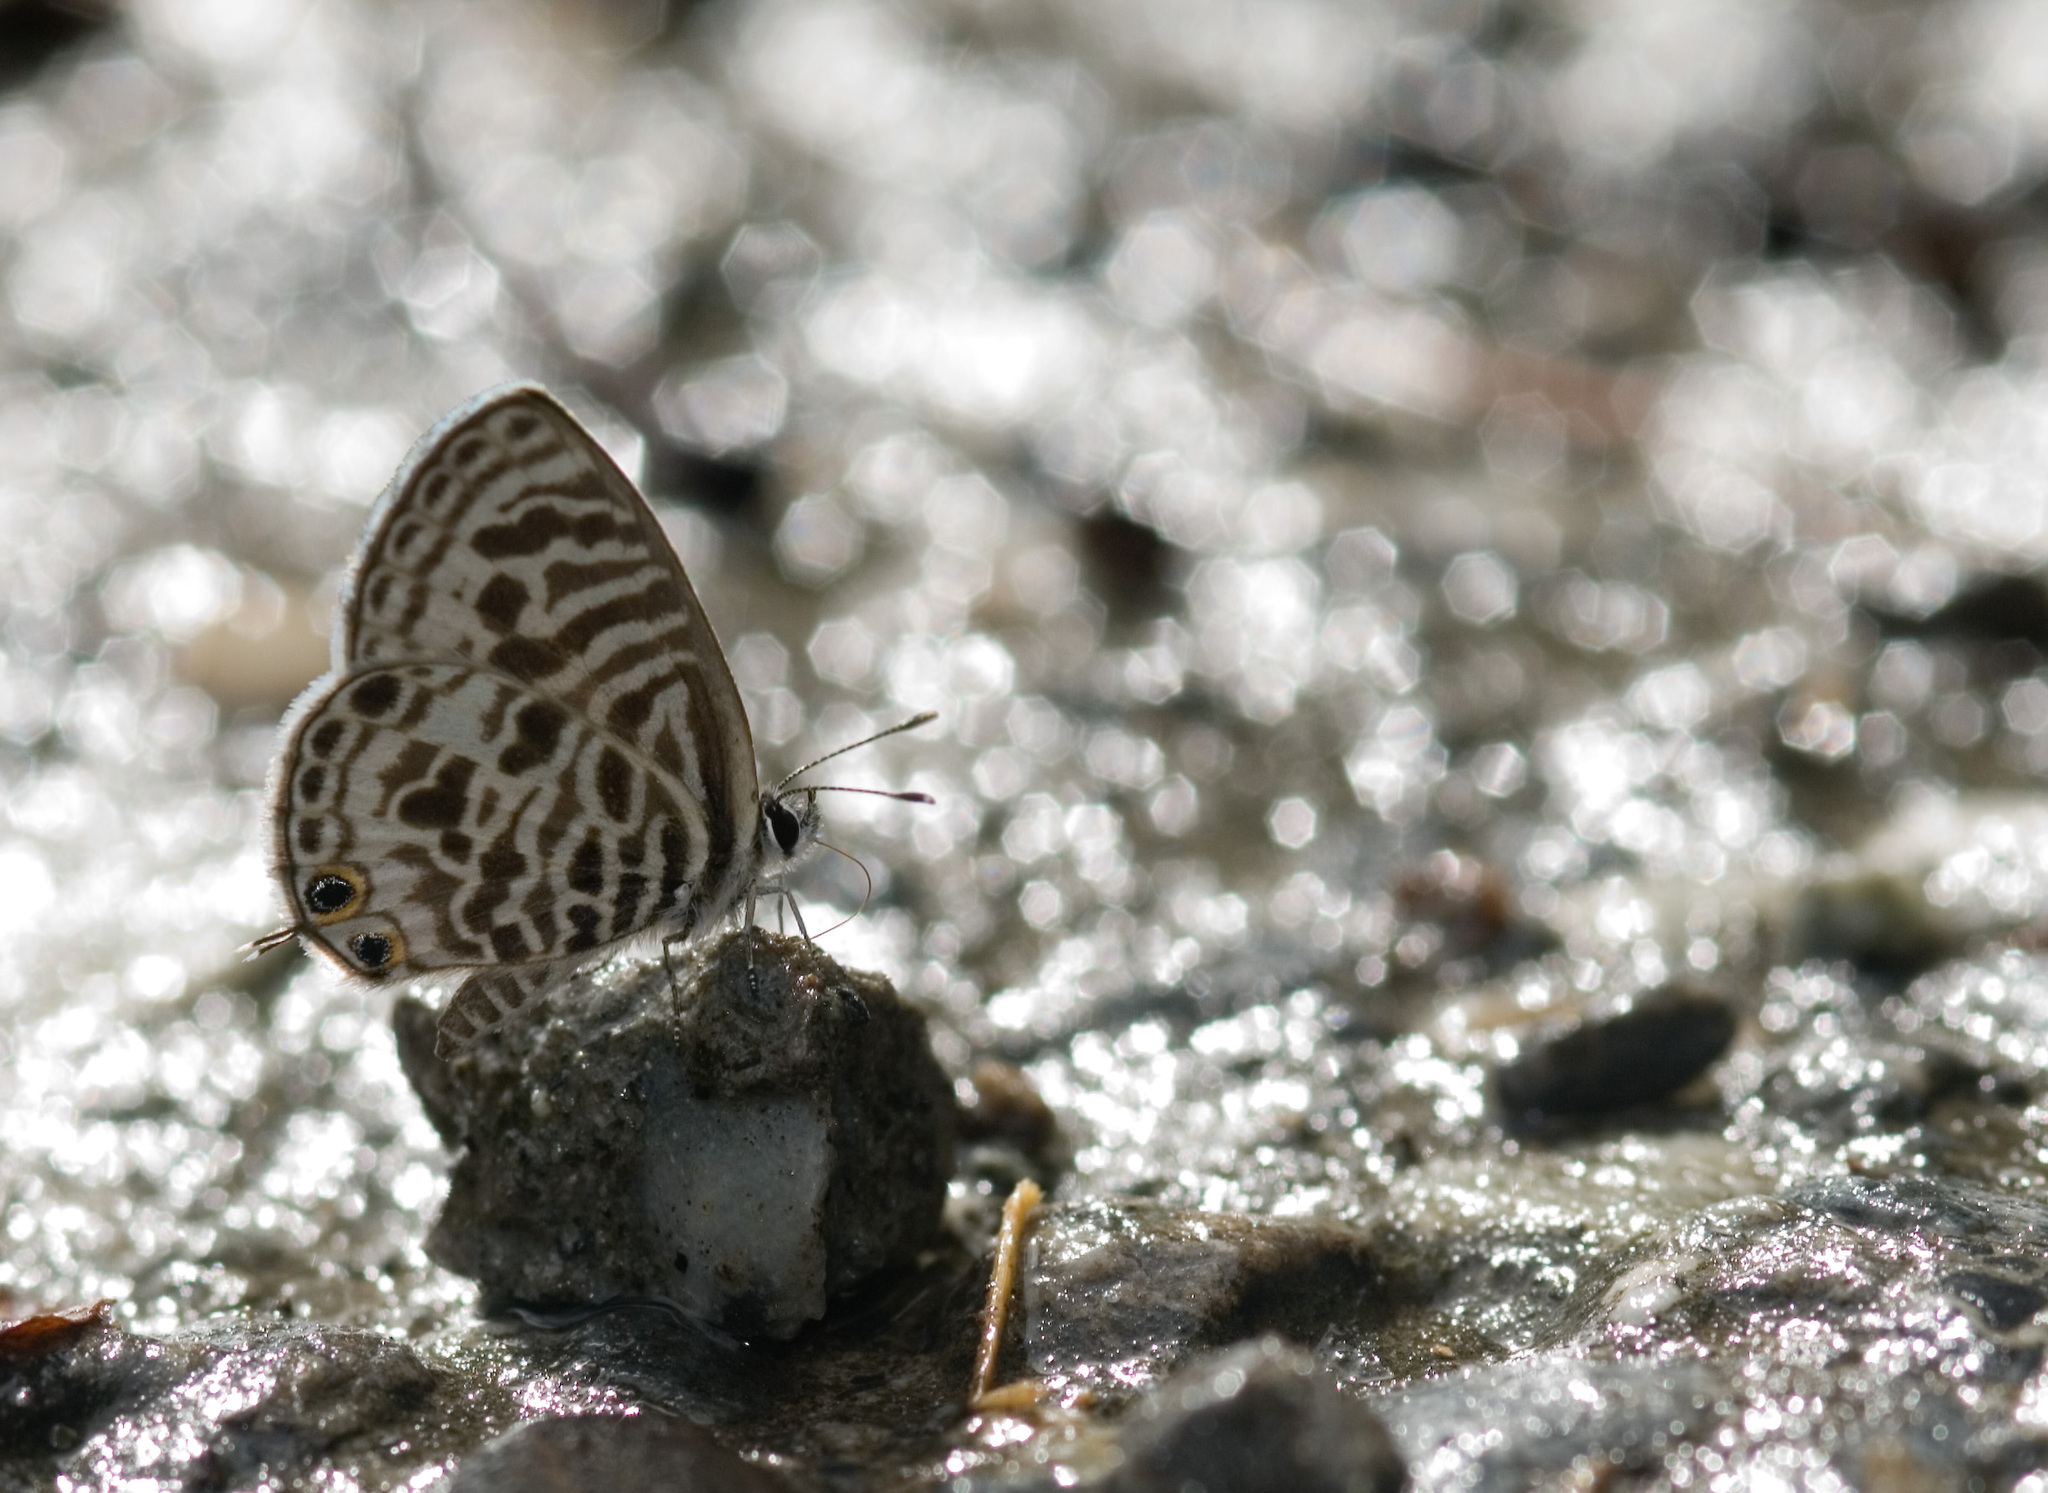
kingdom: Animalia
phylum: Arthropoda
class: Insecta
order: Lepidoptera
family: Lycaenidae
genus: Leptotes
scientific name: Leptotes plinius
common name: Zebra blue
